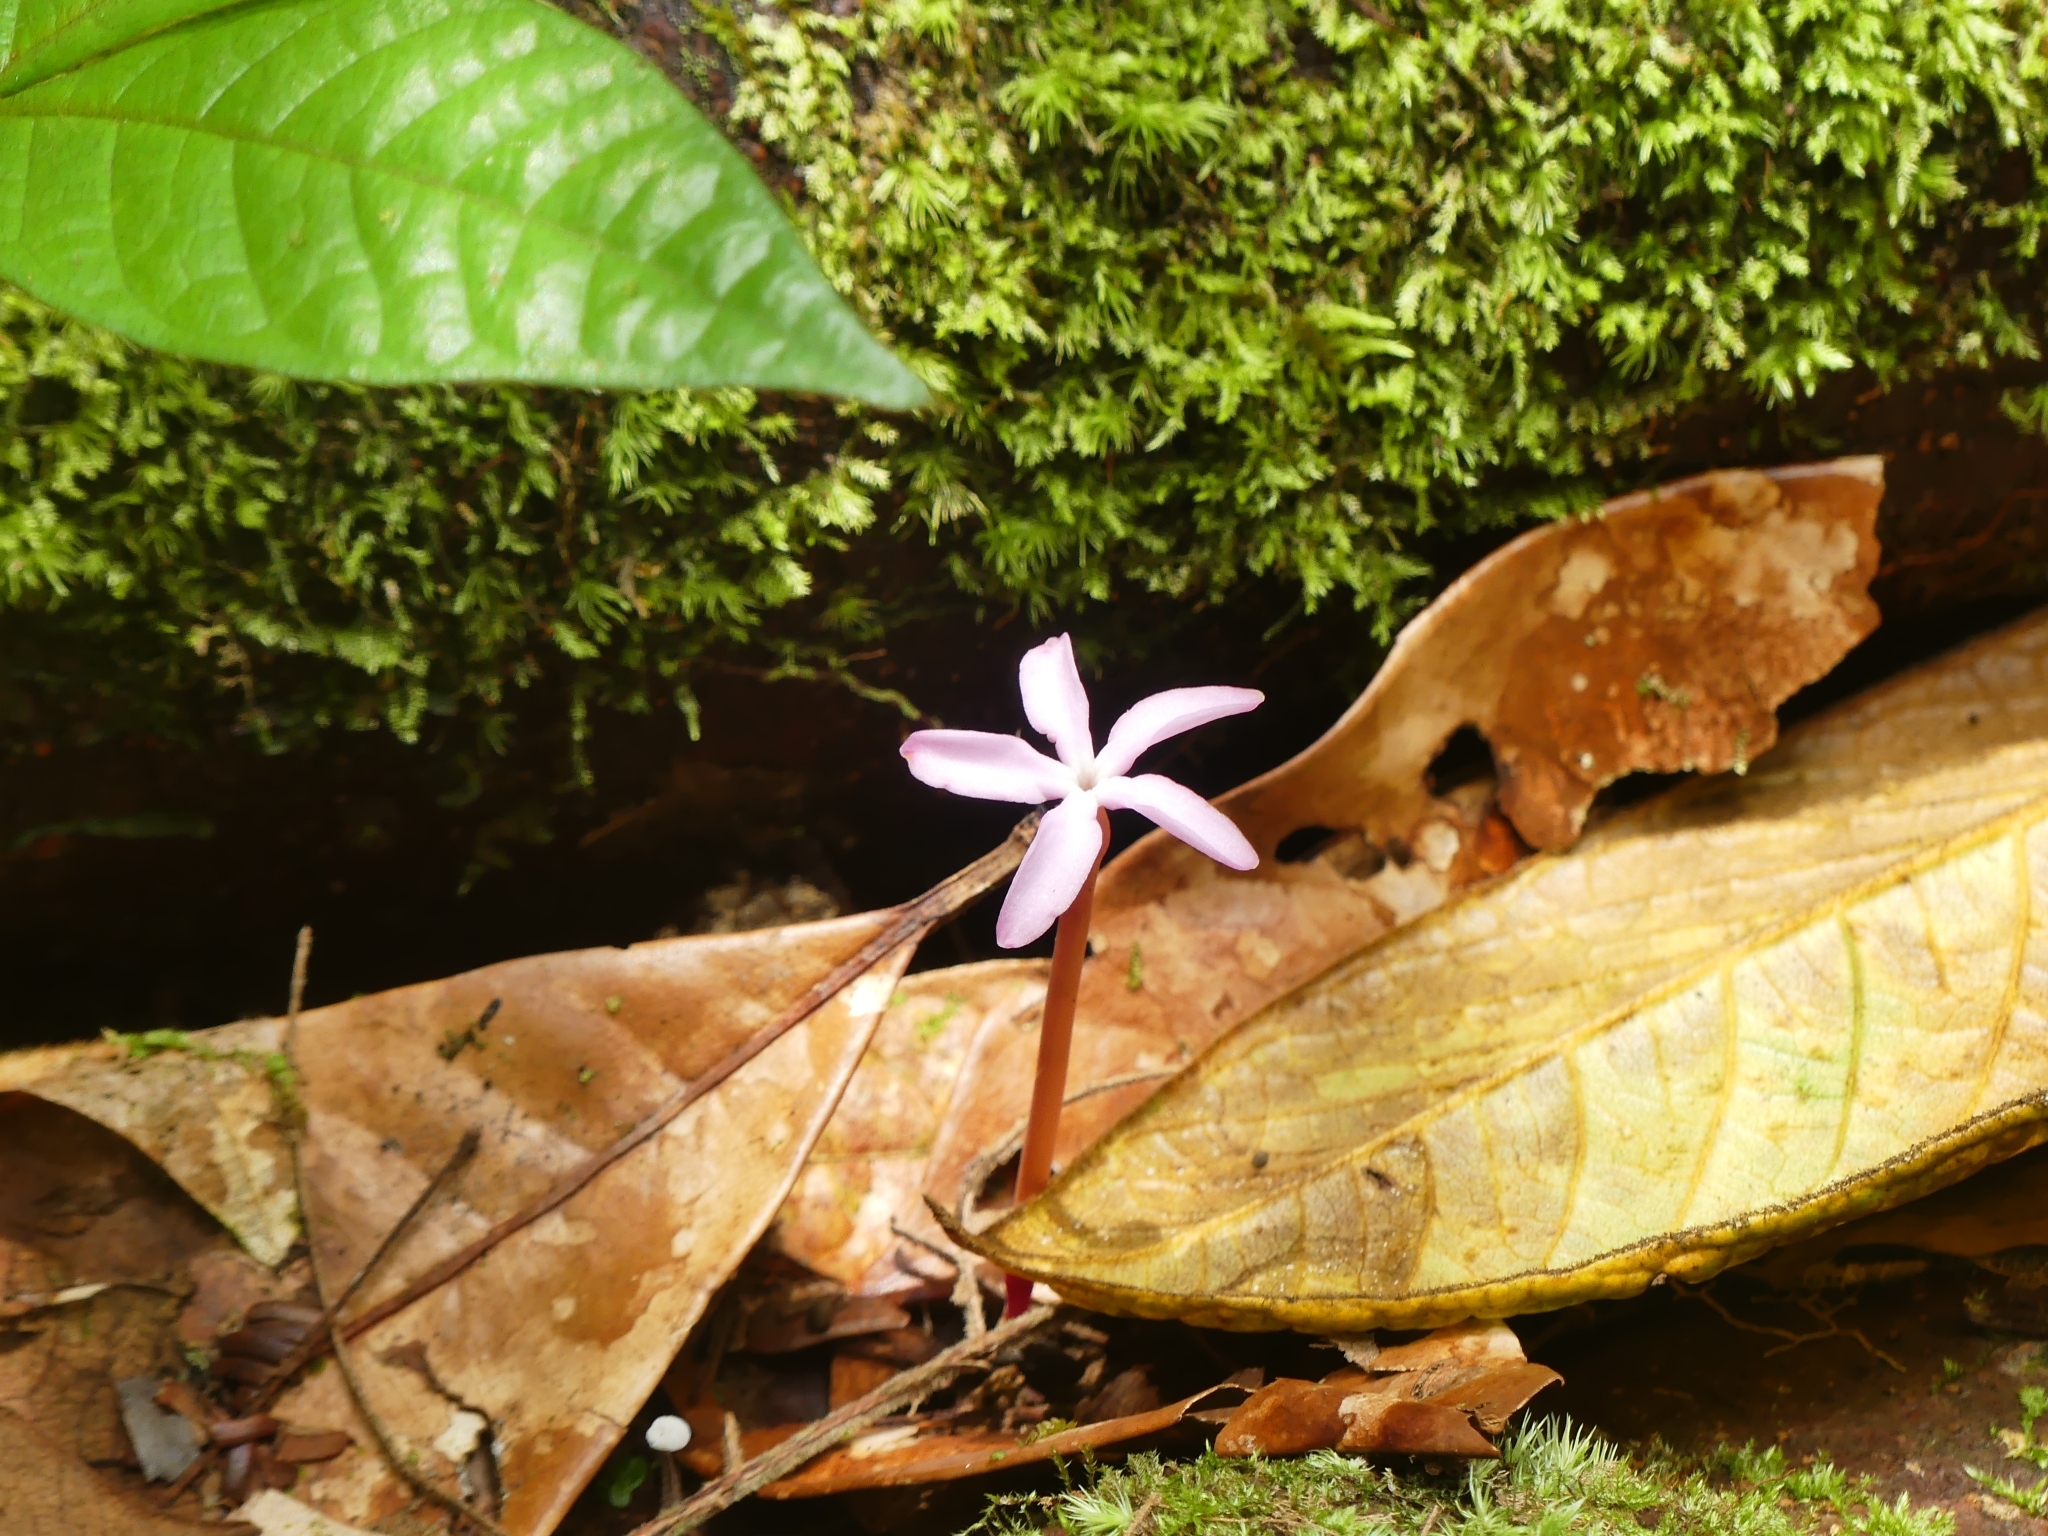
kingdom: Plantae
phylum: Tracheophyta
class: Magnoliopsida
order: Gentianales
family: Gentianaceae
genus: Voyria
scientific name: Voyria rosea
